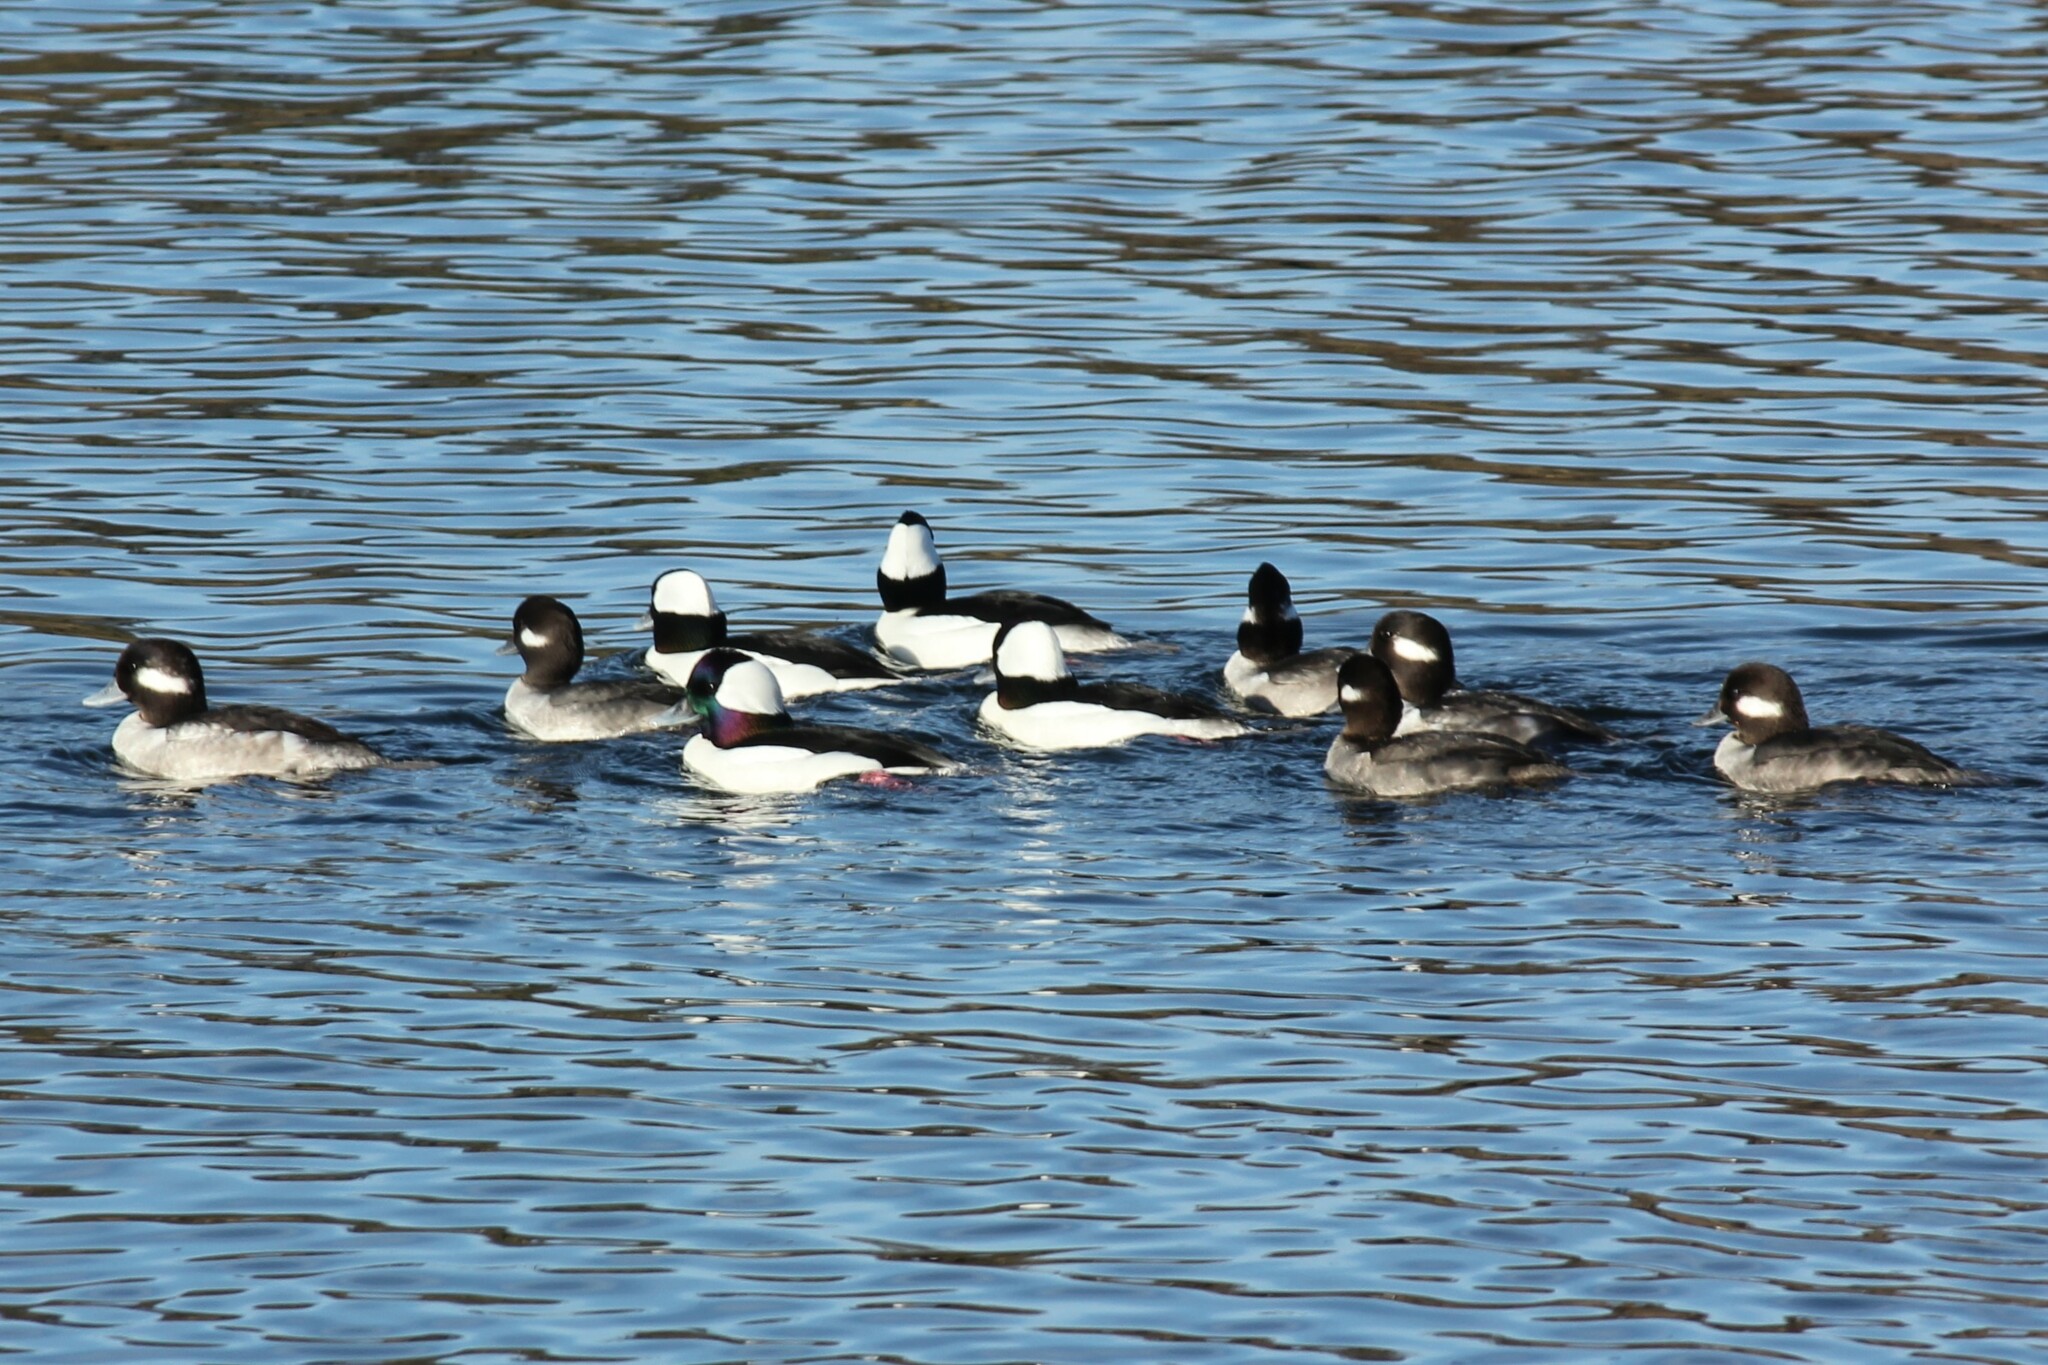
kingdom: Animalia
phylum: Chordata
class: Aves
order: Anseriformes
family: Anatidae
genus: Bucephala
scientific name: Bucephala albeola
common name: Bufflehead
